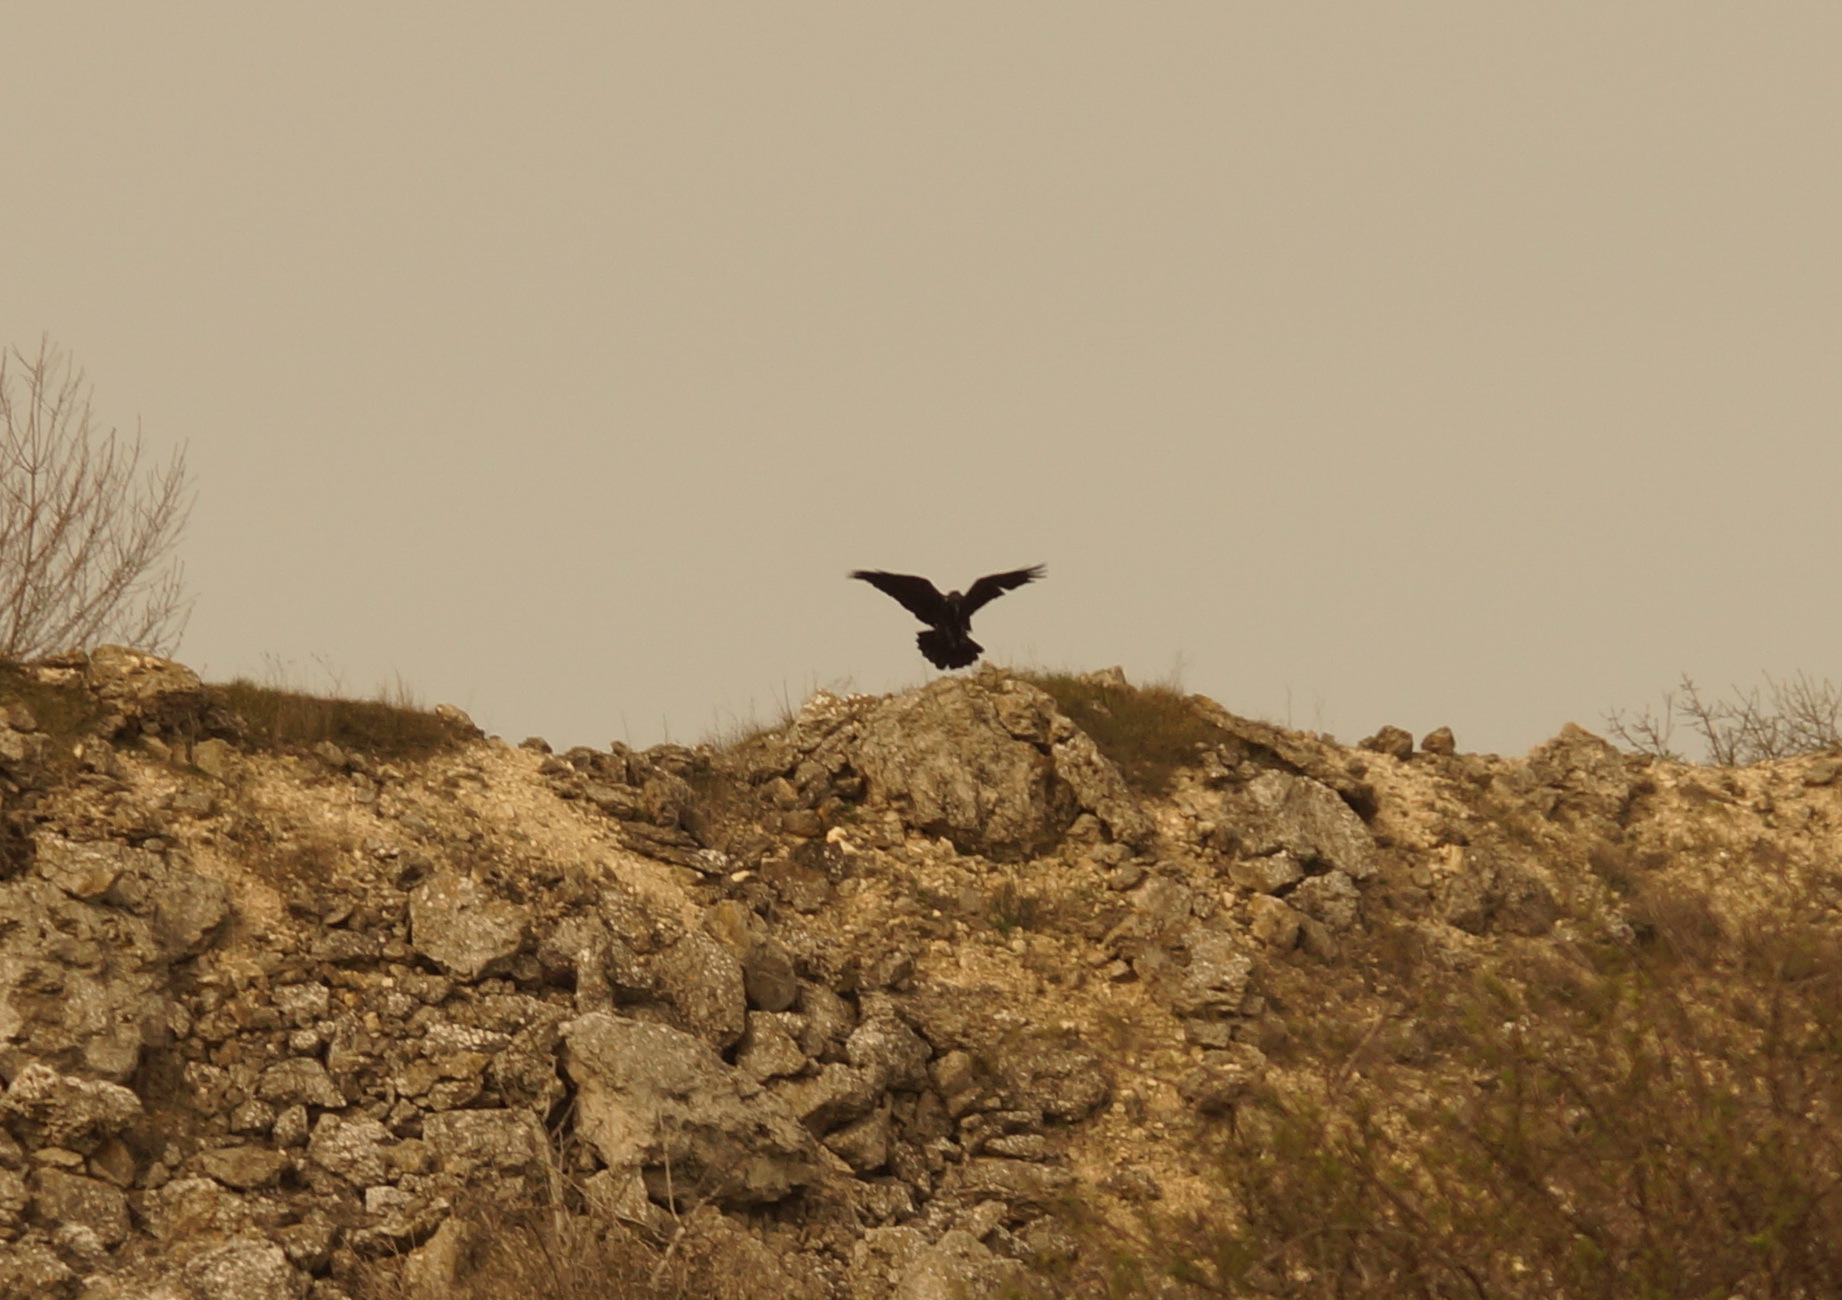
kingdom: Animalia
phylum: Chordata
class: Aves
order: Passeriformes
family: Corvidae
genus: Corvus
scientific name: Corvus corax
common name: Common raven
